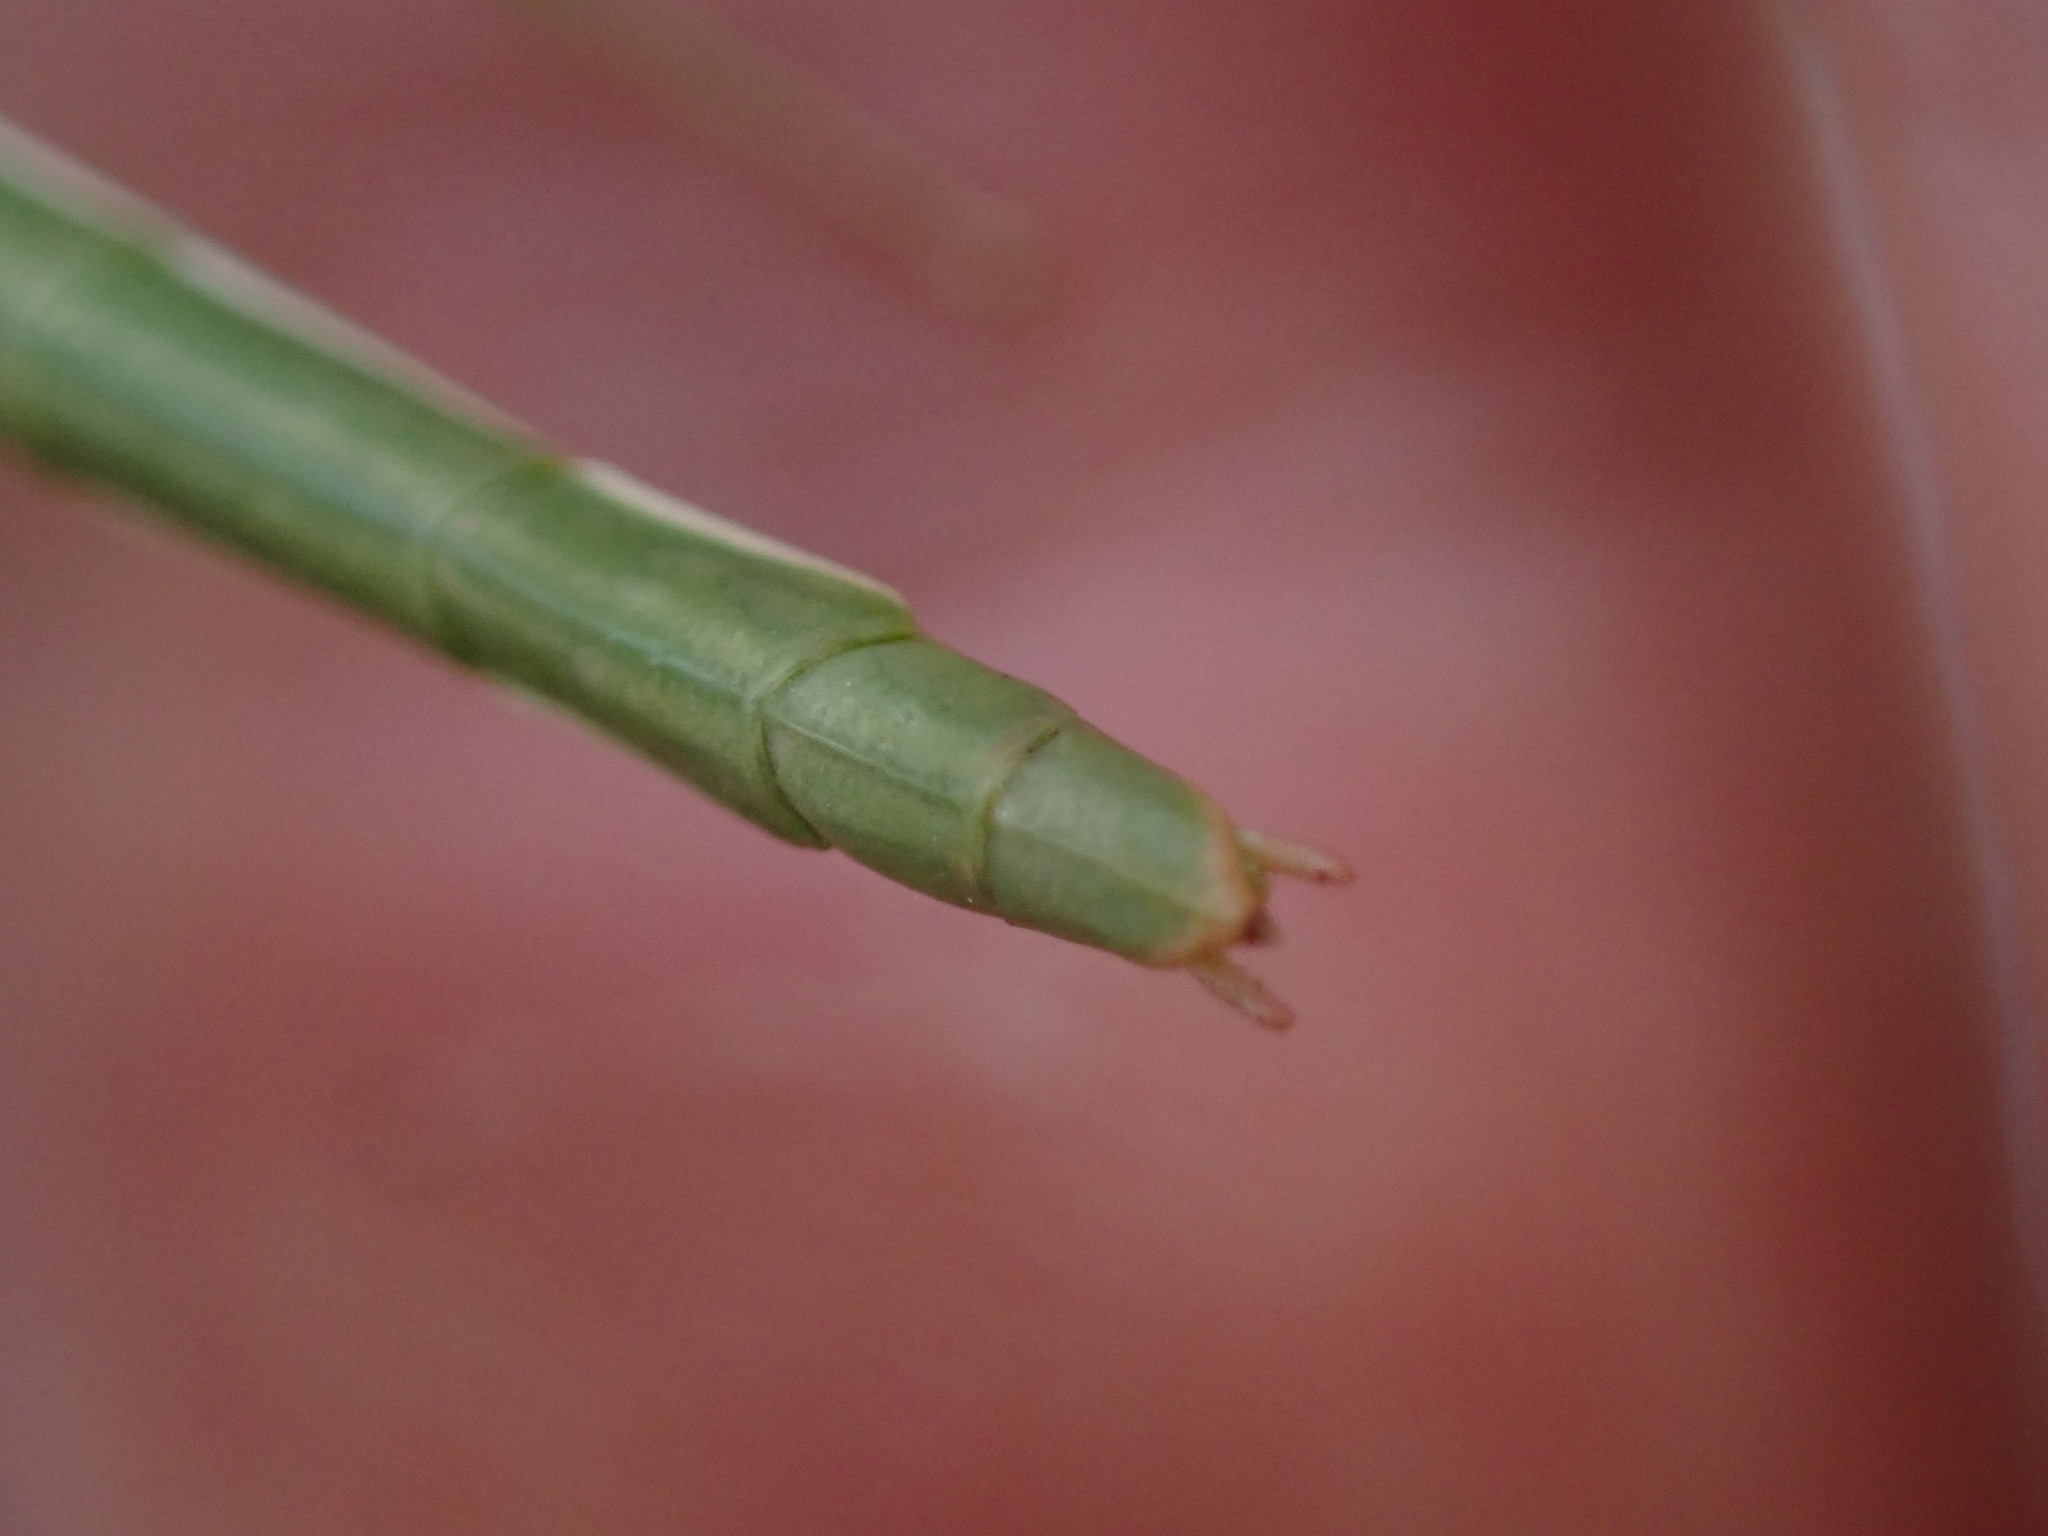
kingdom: Animalia
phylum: Arthropoda
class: Insecta
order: Phasmida
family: Bacillidae
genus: Pijnackeria
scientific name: Pijnackeria masettii
